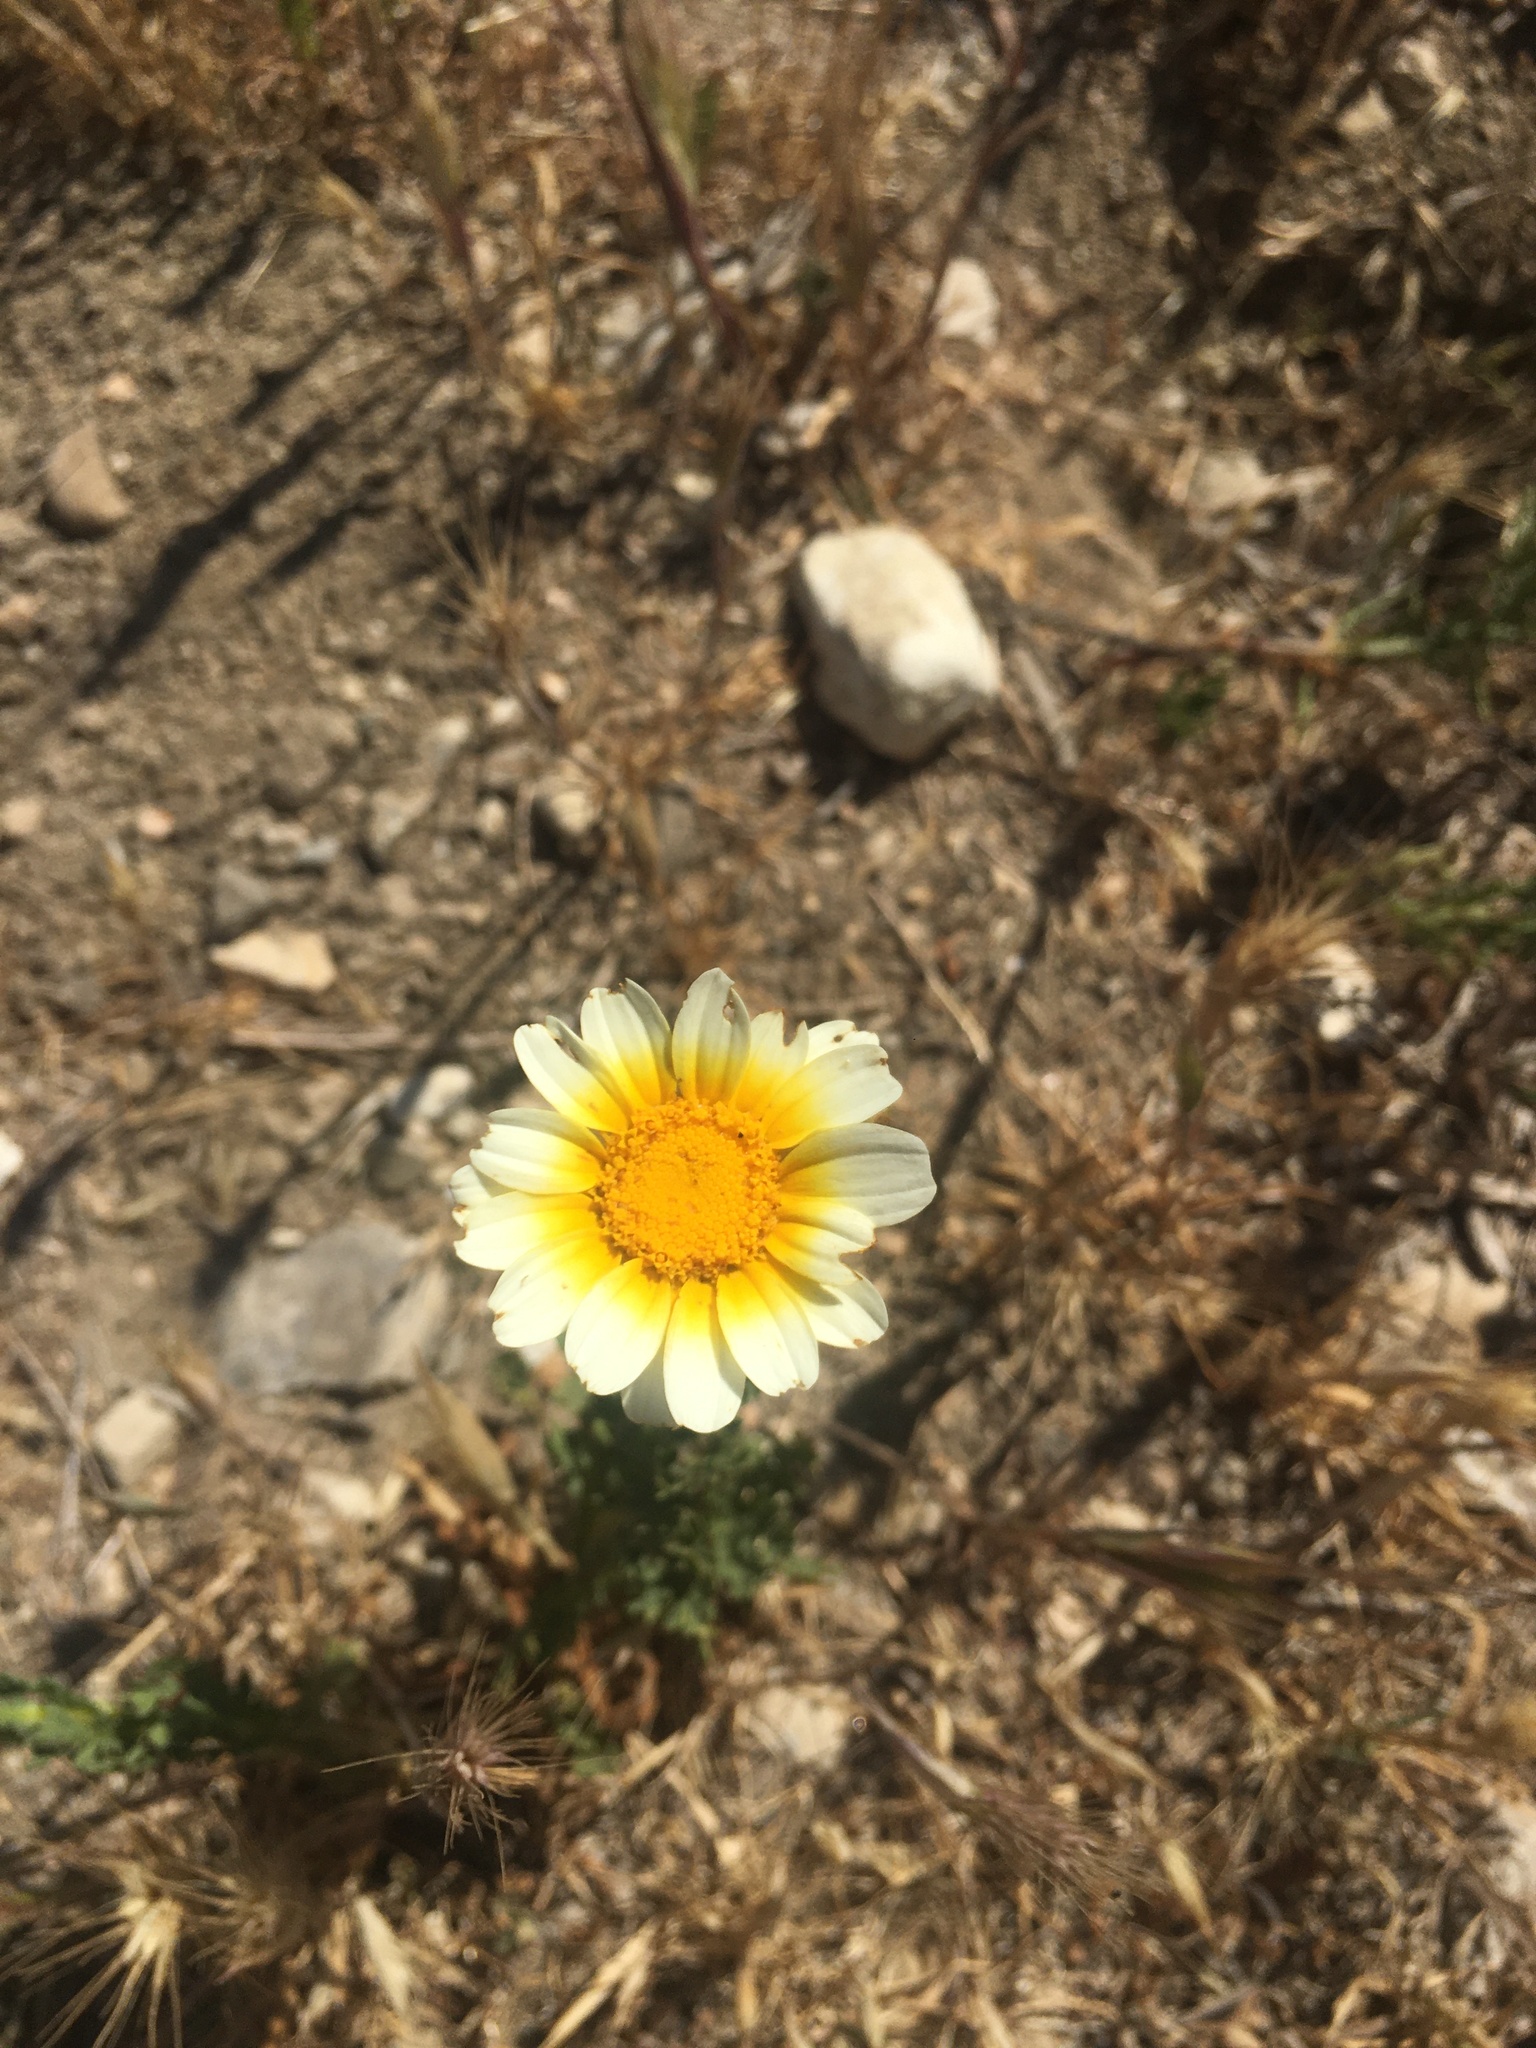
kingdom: Plantae
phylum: Tracheophyta
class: Magnoliopsida
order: Asterales
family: Asteraceae
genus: Glebionis
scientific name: Glebionis coronaria
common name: Crowndaisy
